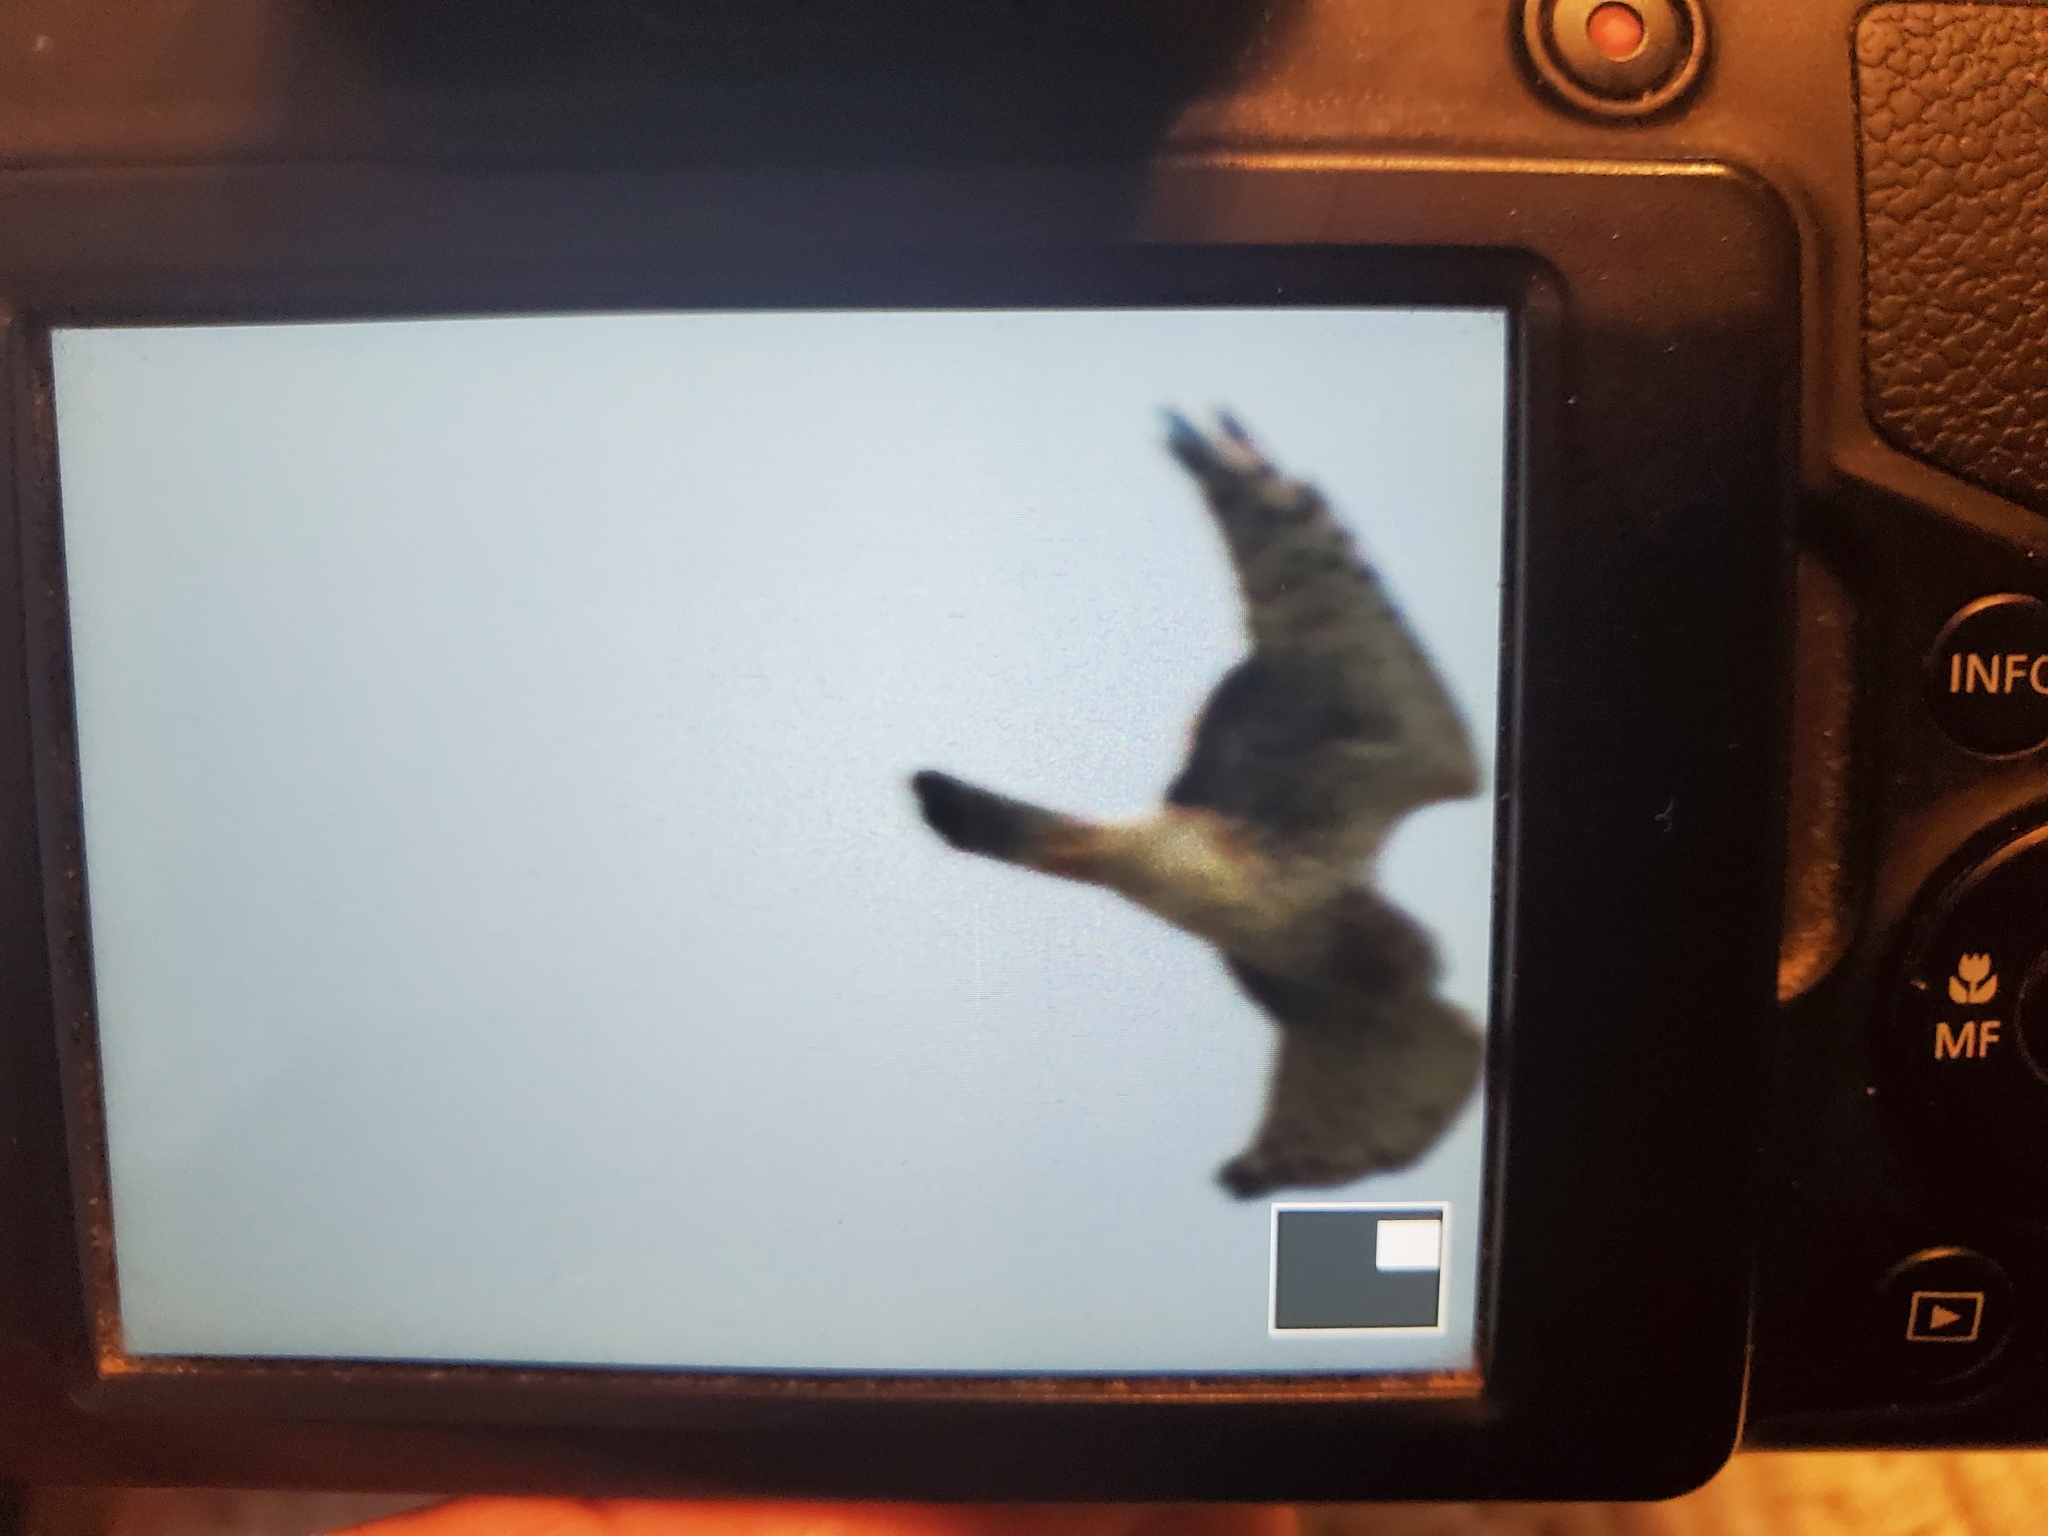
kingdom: Animalia
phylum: Chordata
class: Aves
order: Accipitriformes
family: Accipitridae
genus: Circus
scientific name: Circus cyaneus
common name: Hen harrier
